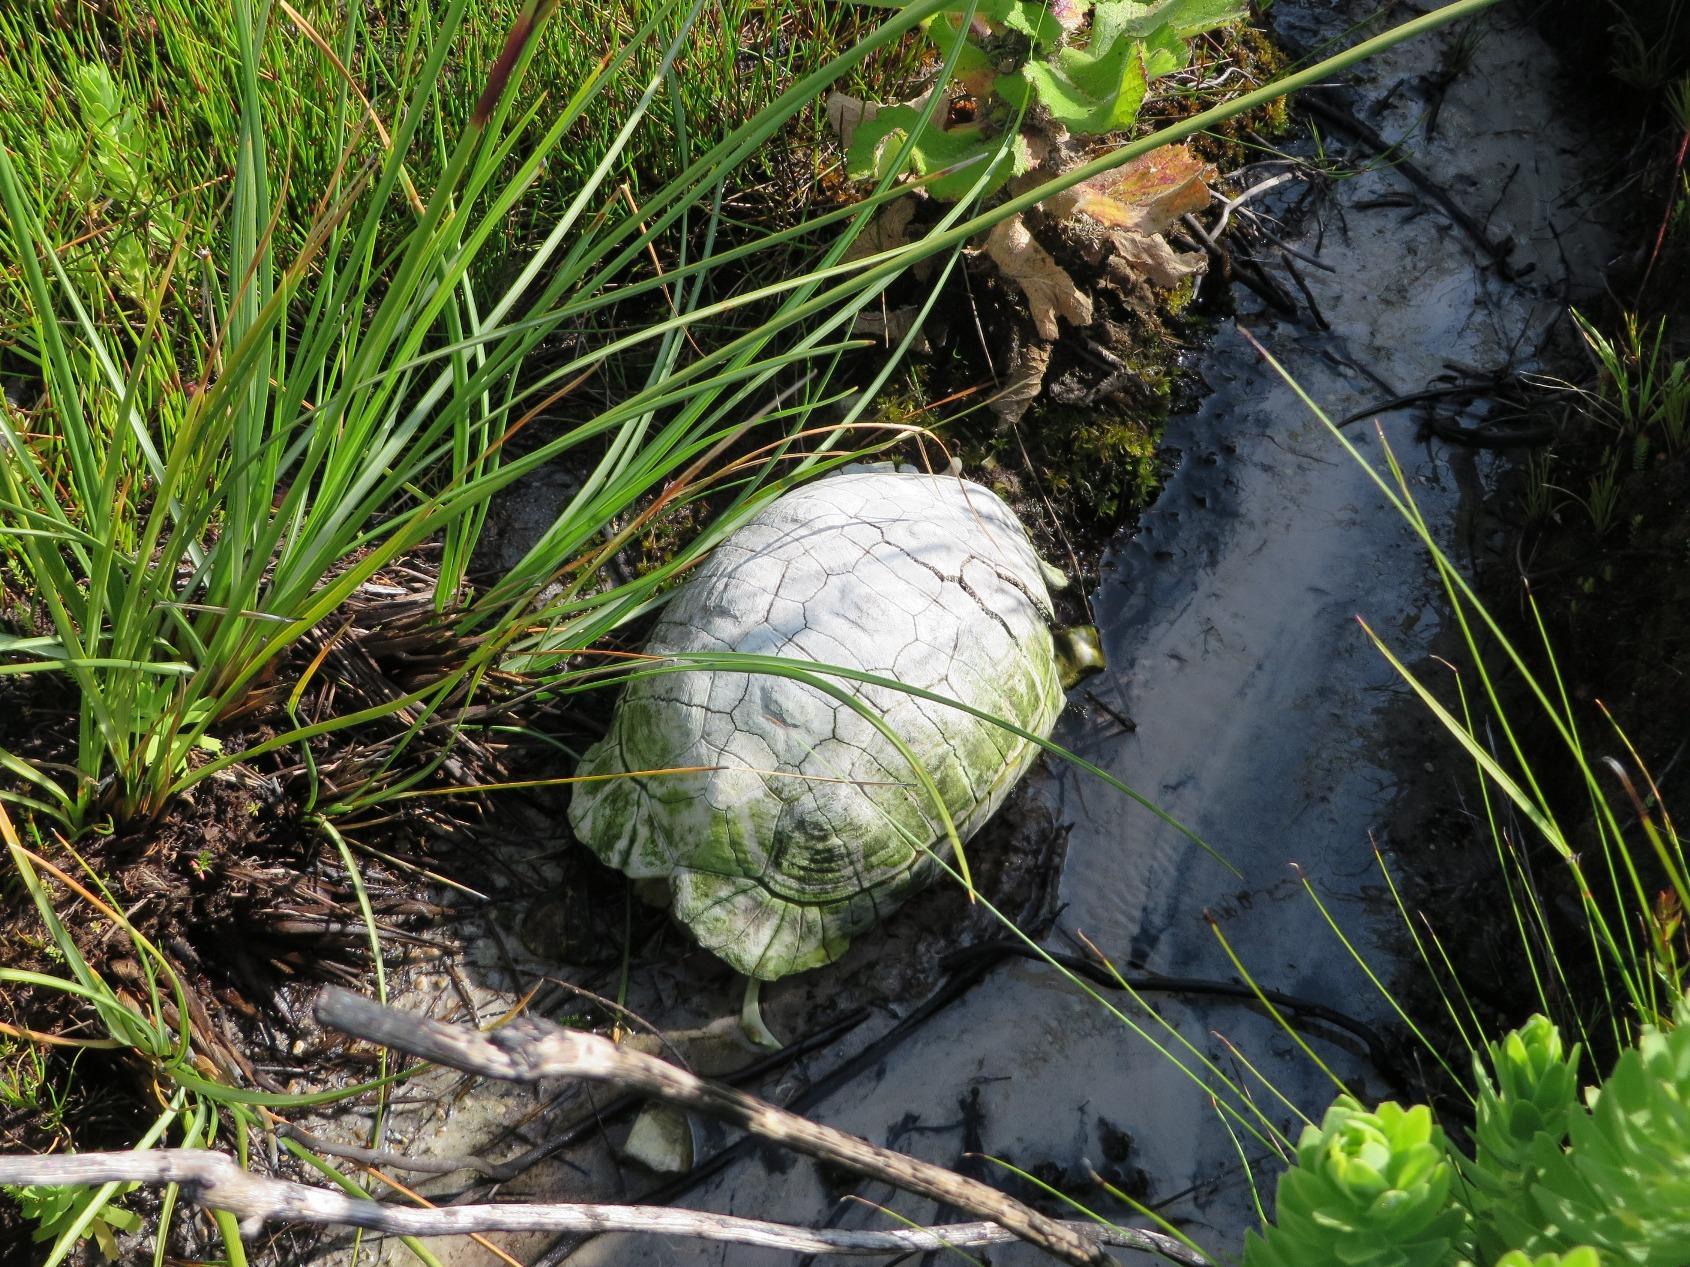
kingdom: Animalia
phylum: Chordata
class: Testudines
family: Testudinidae
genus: Chersina
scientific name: Chersina angulata
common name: South african bowsprit tortoise
